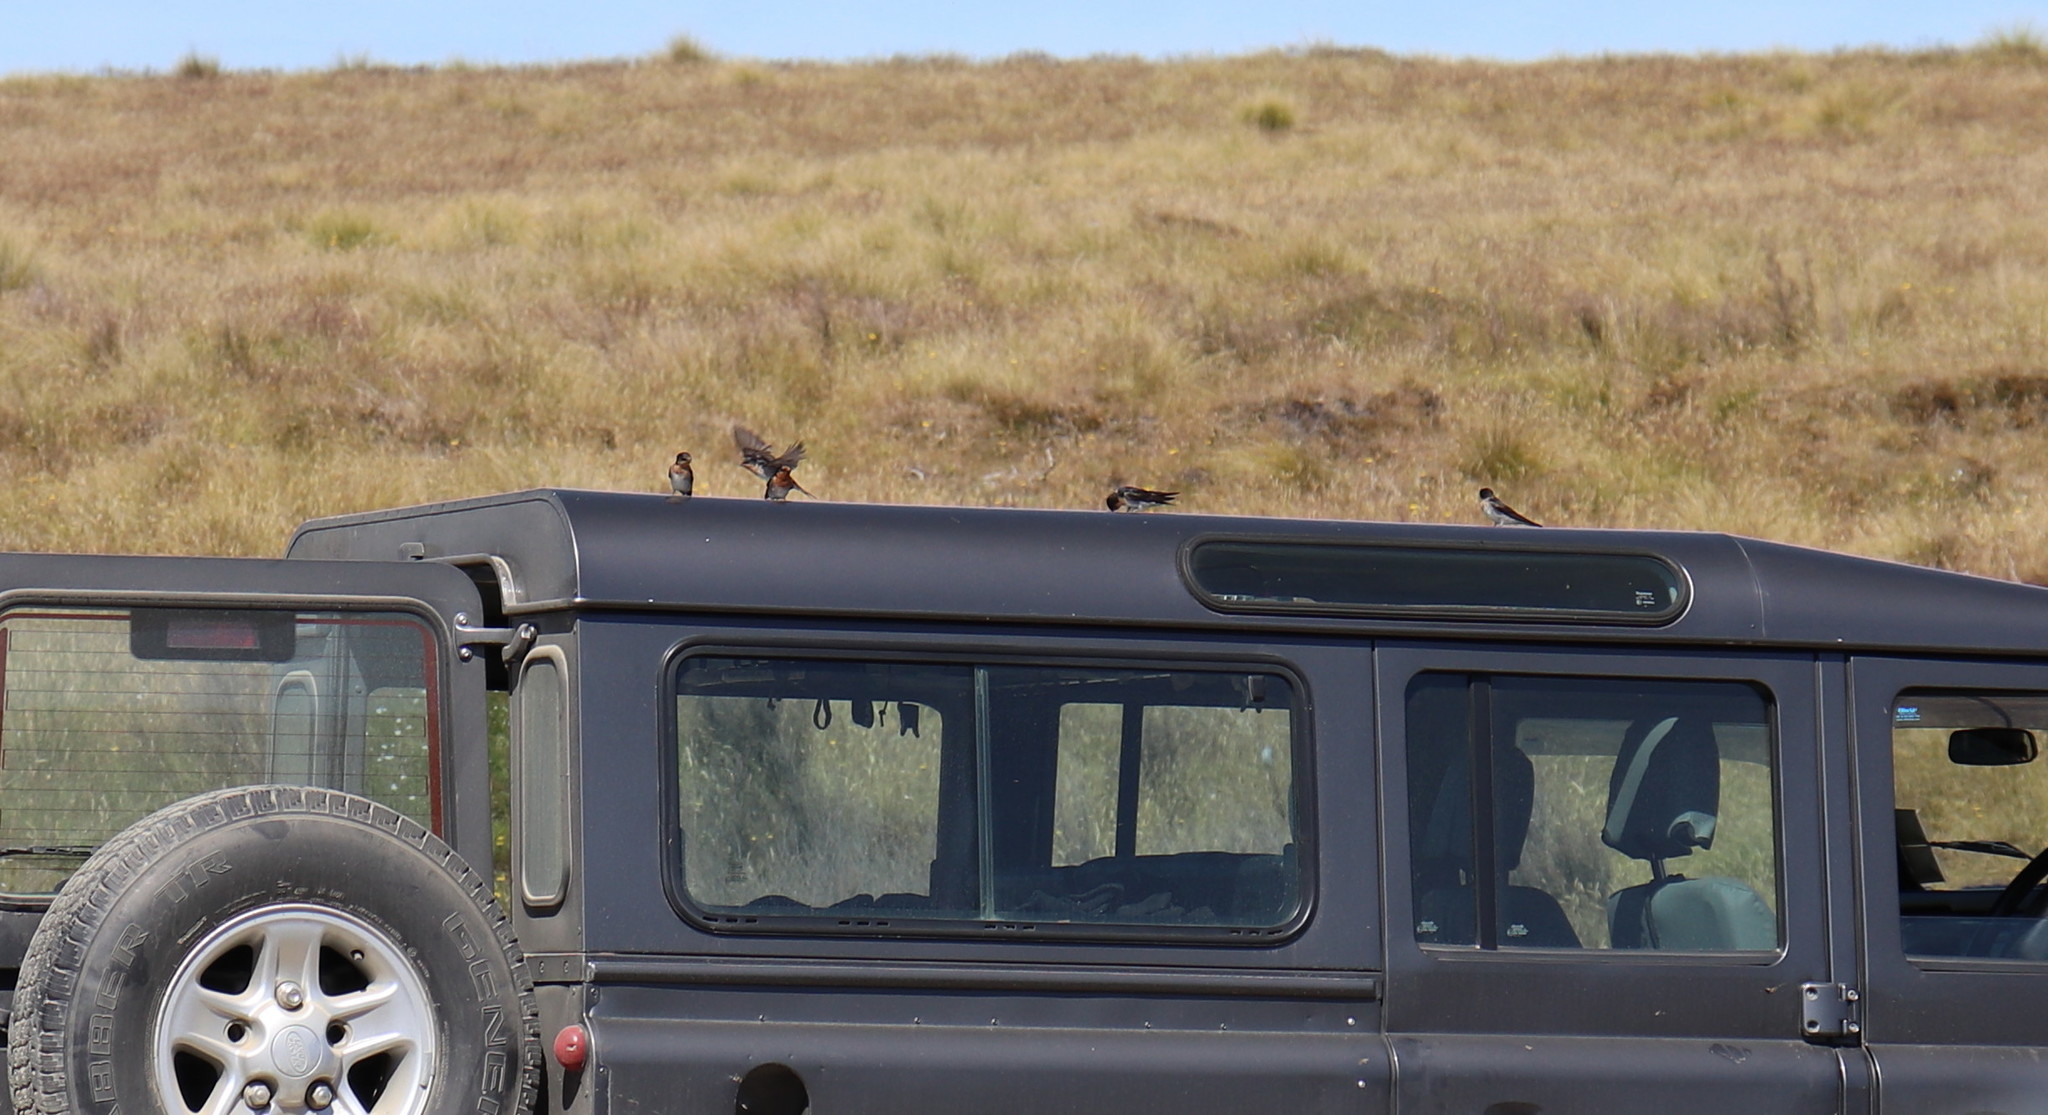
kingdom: Animalia
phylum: Chordata
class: Aves
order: Passeriformes
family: Hirundinidae
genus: Hirundo
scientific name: Hirundo neoxena
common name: Welcome swallow
